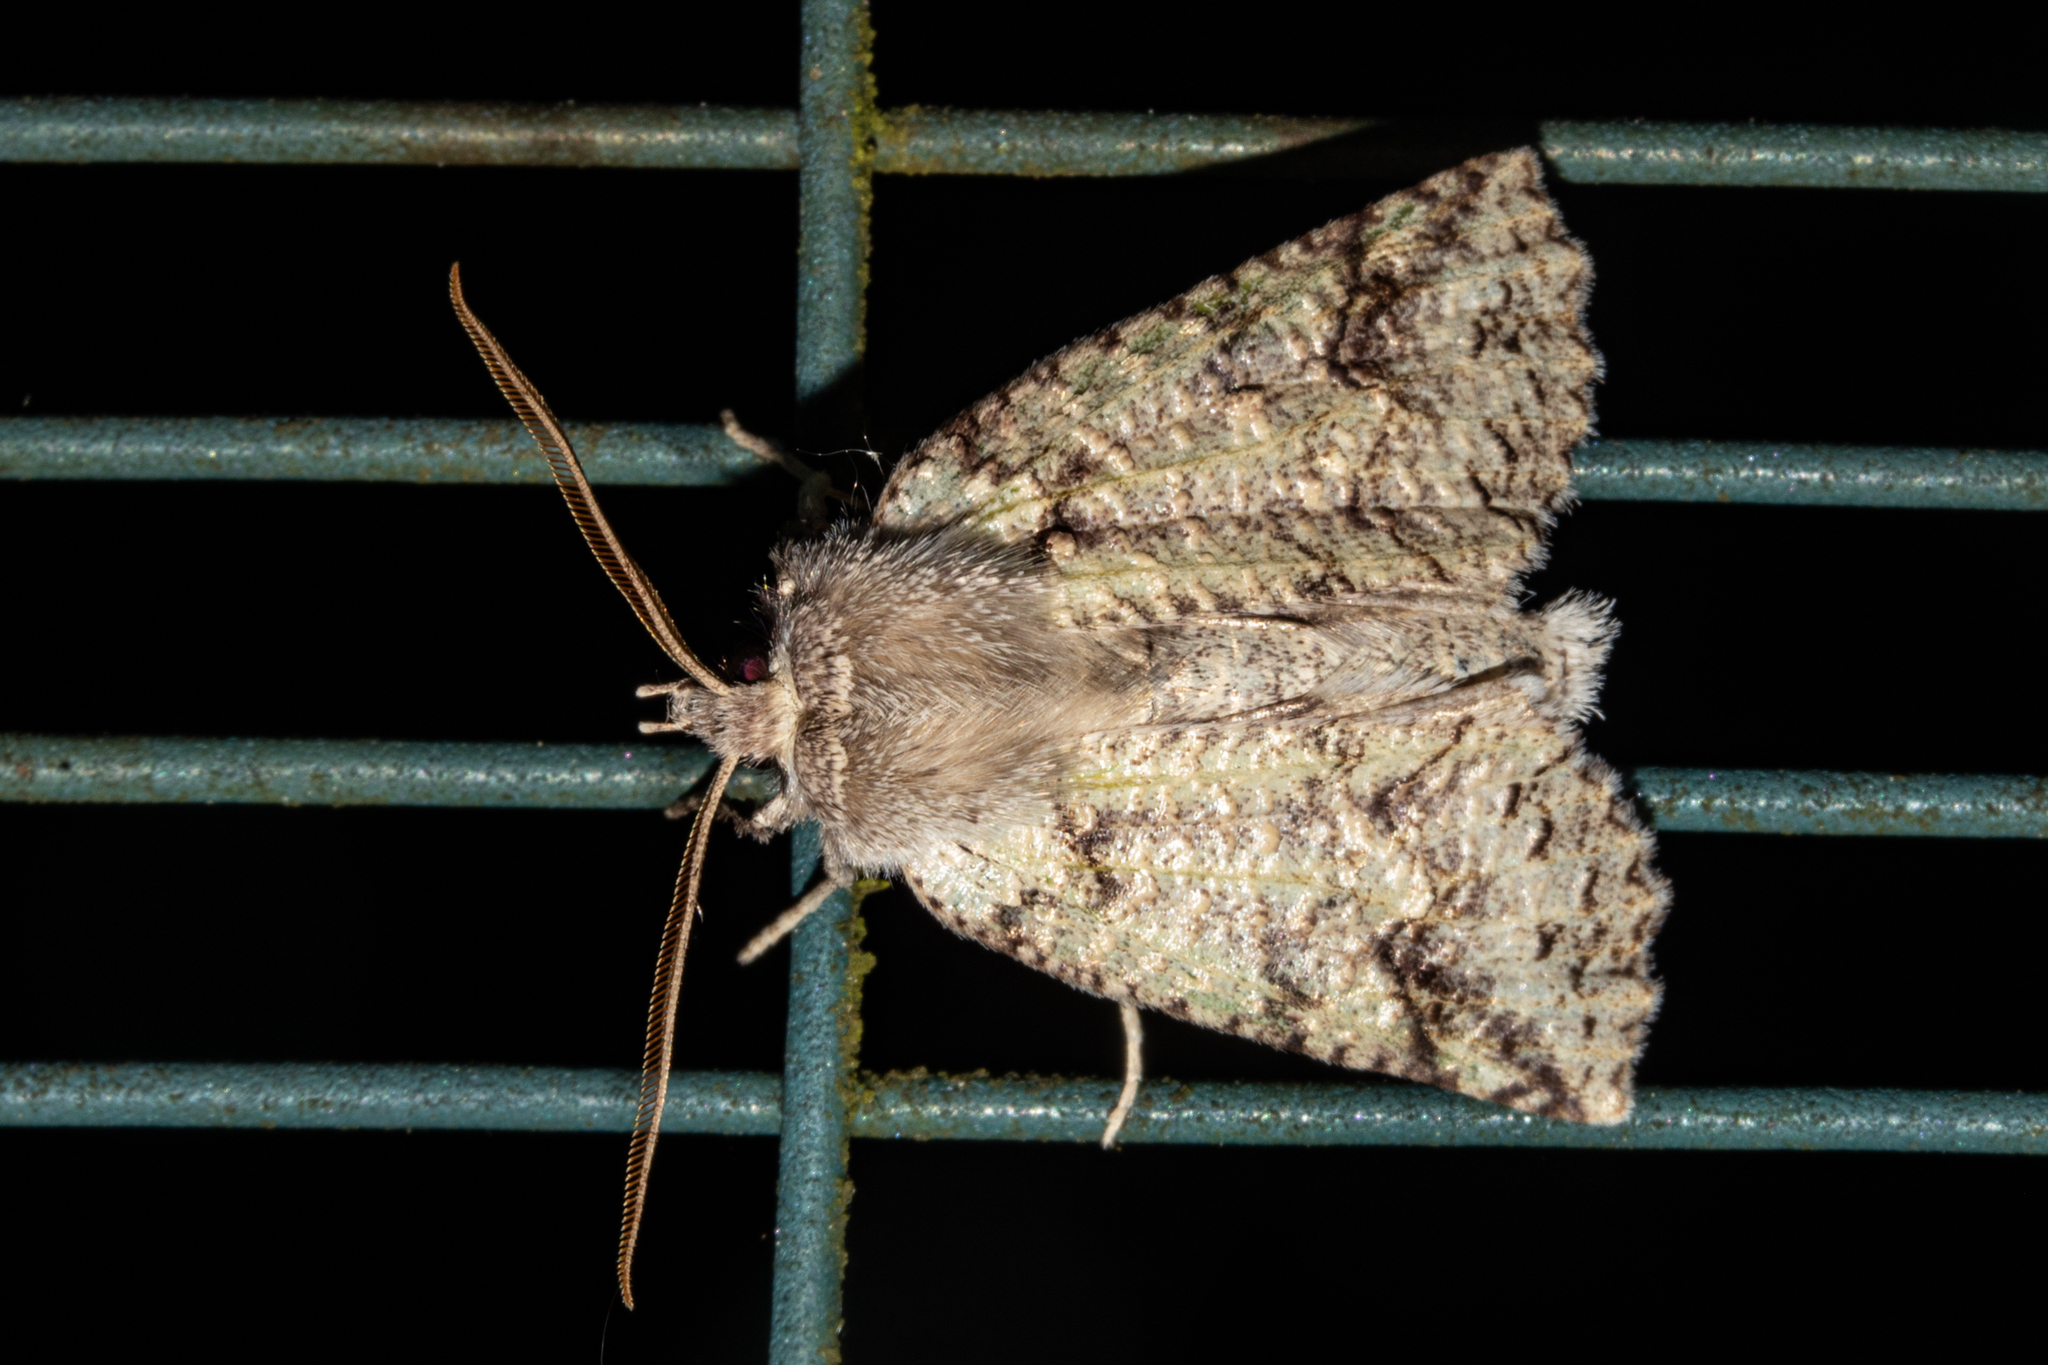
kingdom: Animalia
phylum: Arthropoda
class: Insecta
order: Lepidoptera
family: Geometridae
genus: Declana
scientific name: Declana floccosa
